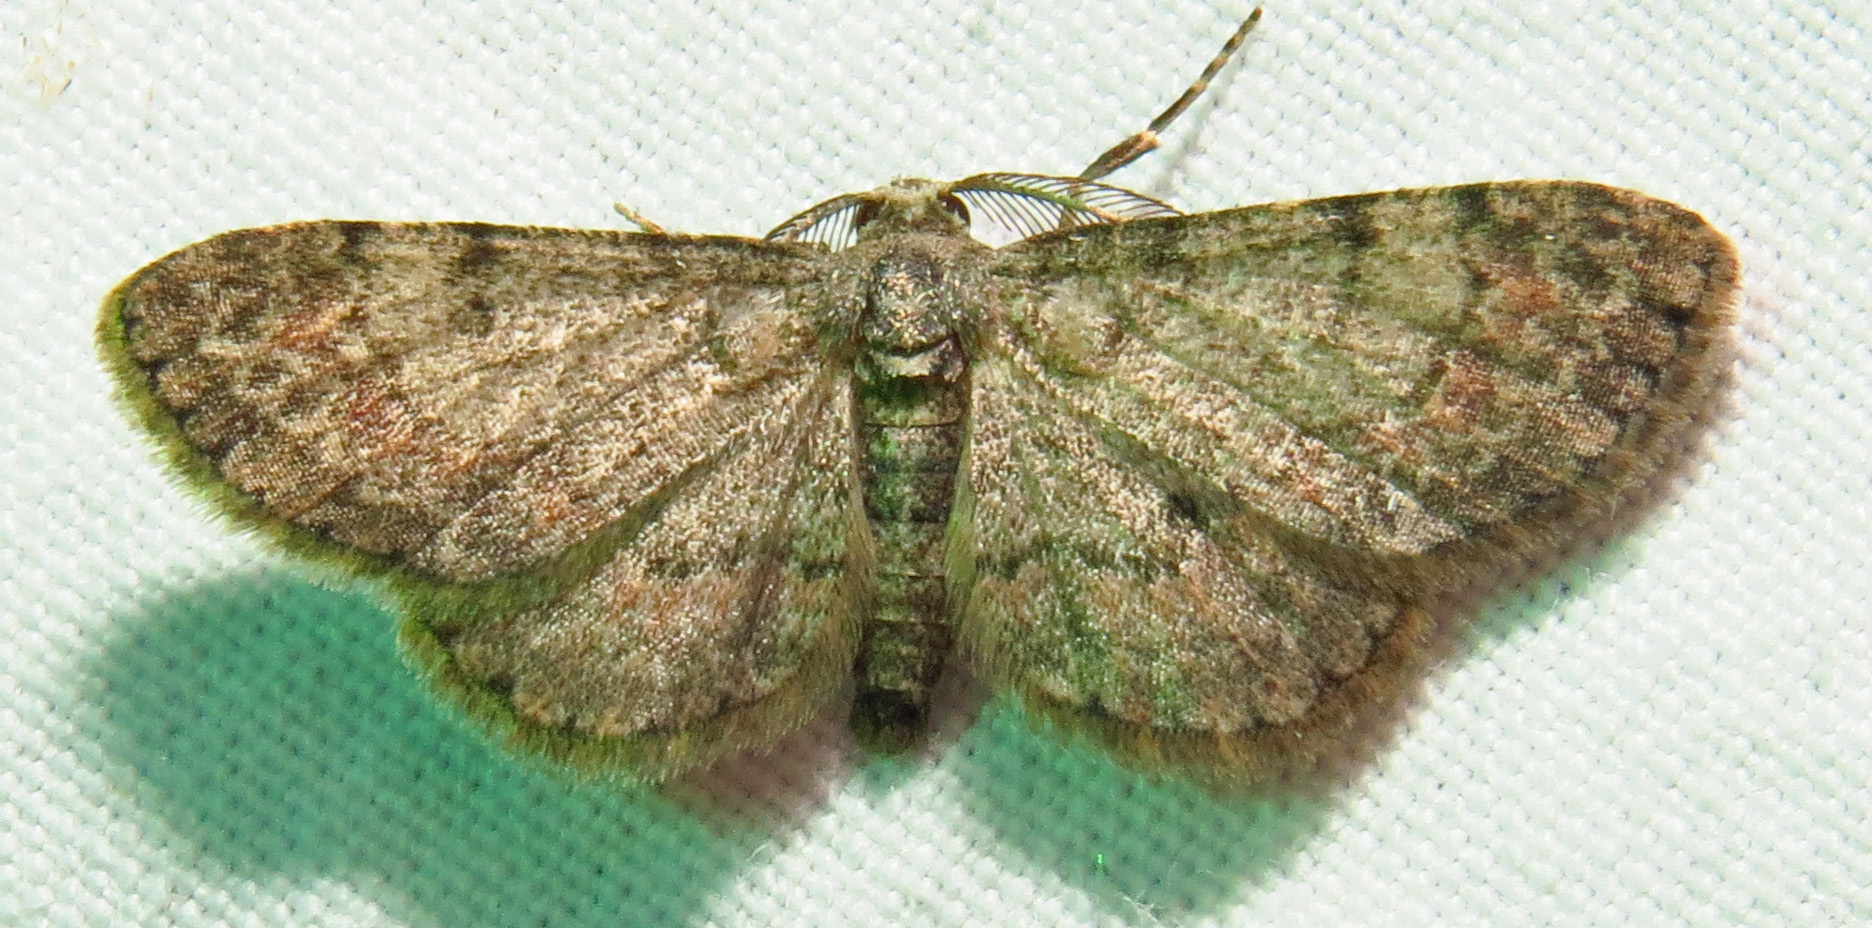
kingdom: Animalia
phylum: Arthropoda
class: Insecta
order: Lepidoptera
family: Geometridae
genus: Glenoides
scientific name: Glenoides texanaria
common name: Texas gray
